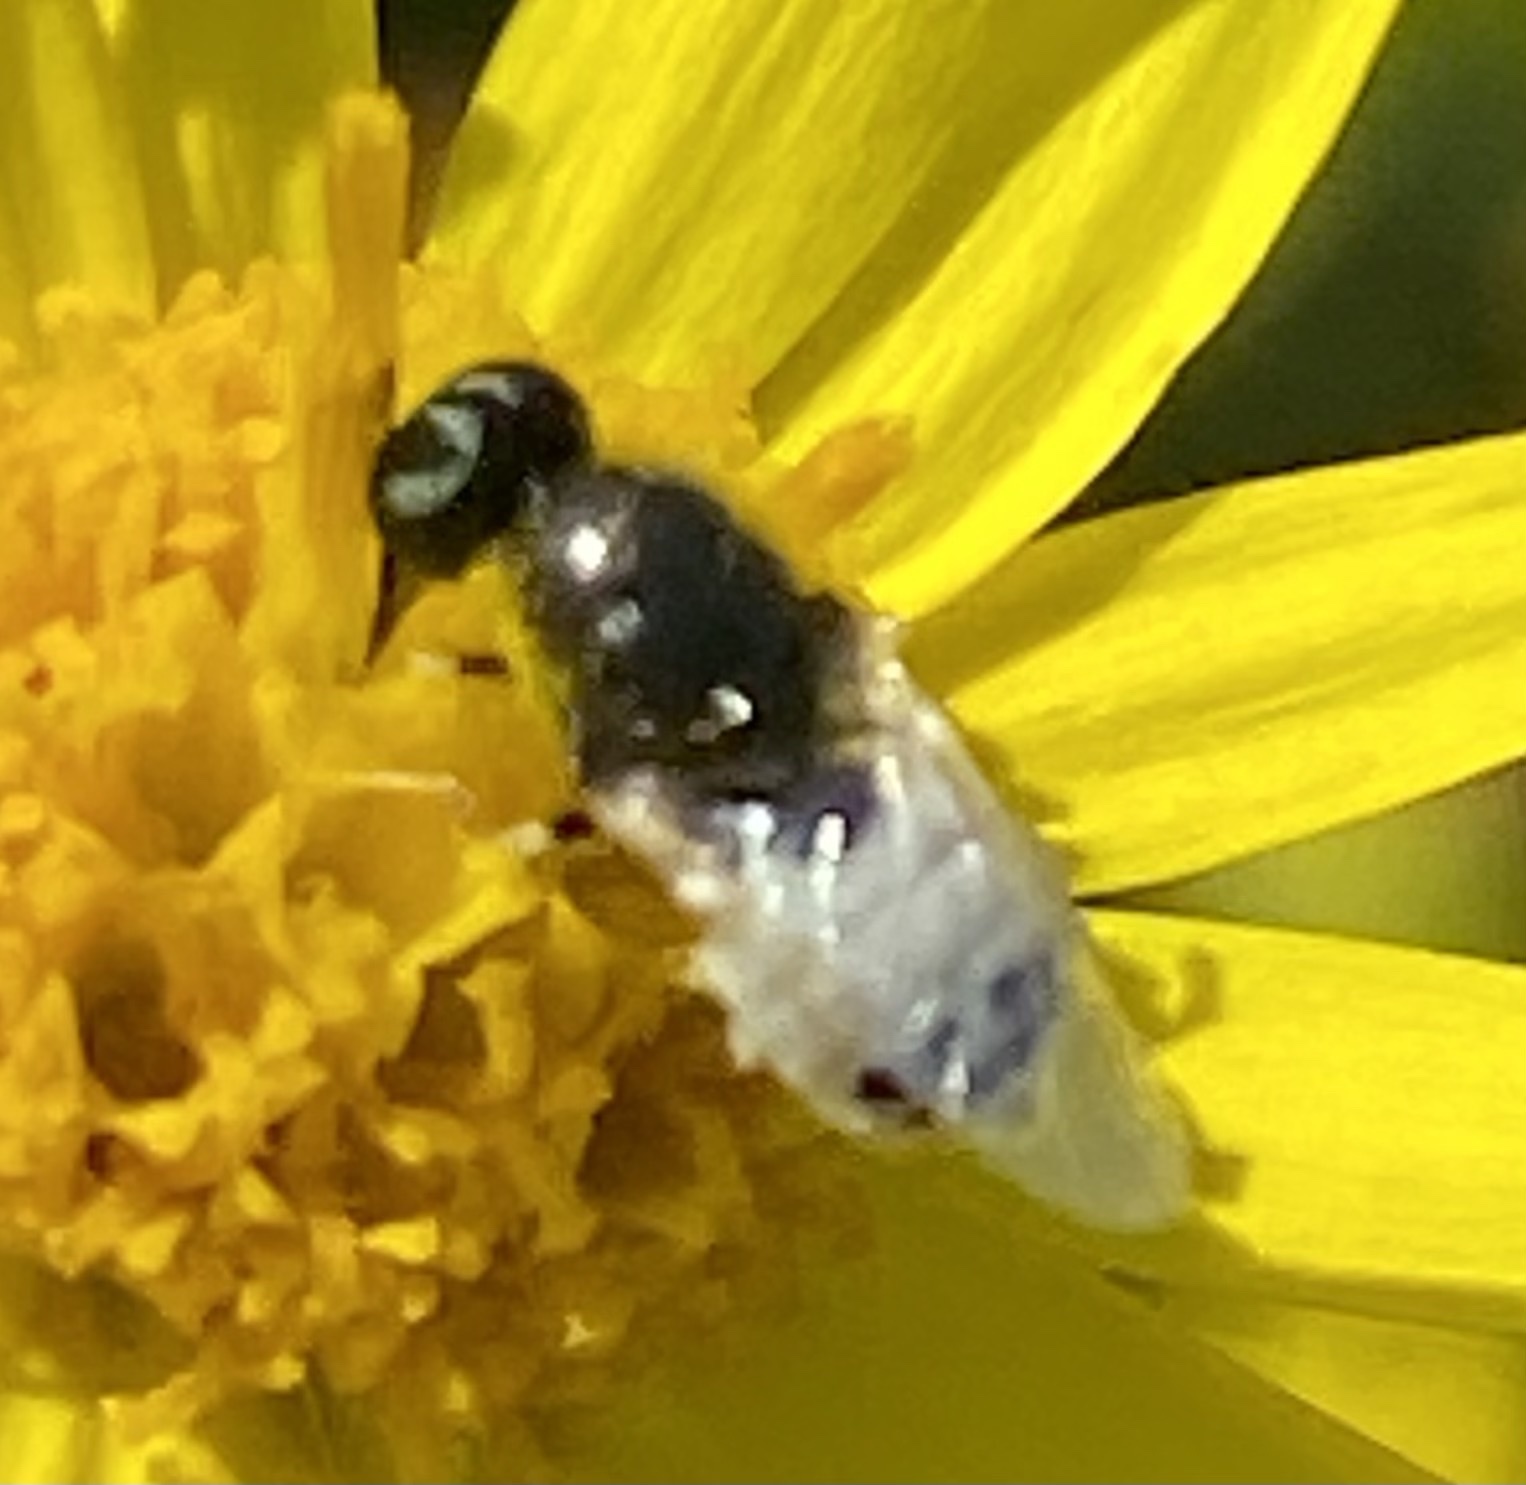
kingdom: Animalia
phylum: Arthropoda
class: Insecta
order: Diptera
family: Stratiomyidae
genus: Nemotelus
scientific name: Nemotelus pantherina
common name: Fen snout
